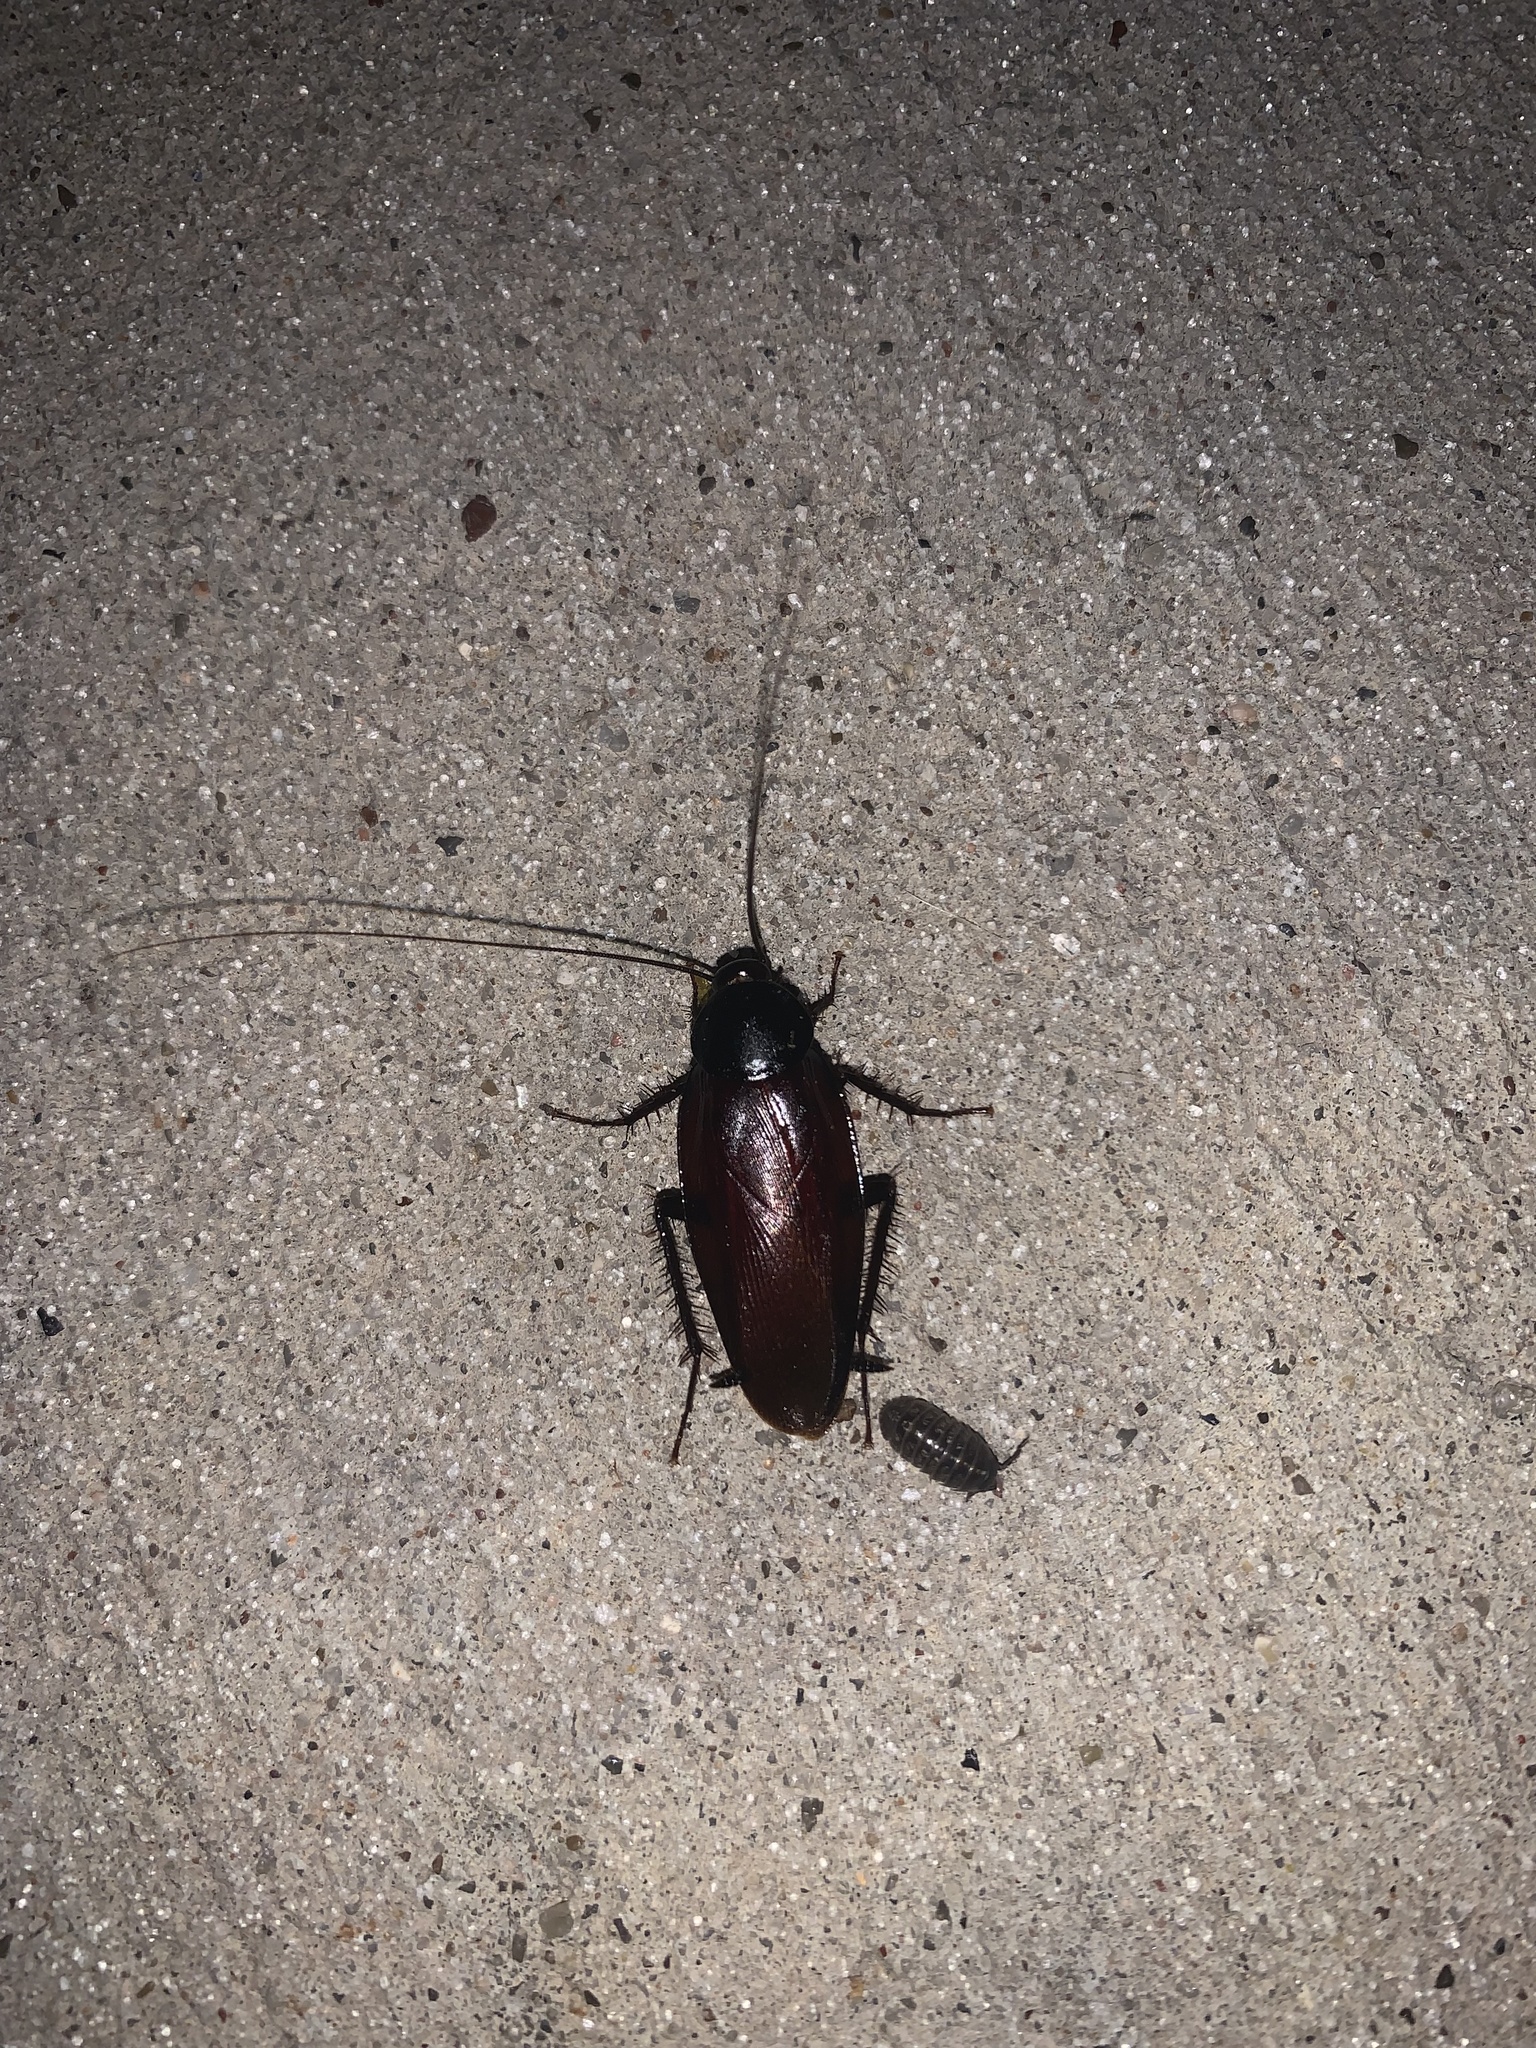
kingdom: Animalia
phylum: Arthropoda
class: Insecta
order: Blattodea
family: Blattidae
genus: Periplaneta
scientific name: Periplaneta fuliginosa
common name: Smokeybrown cockroad
